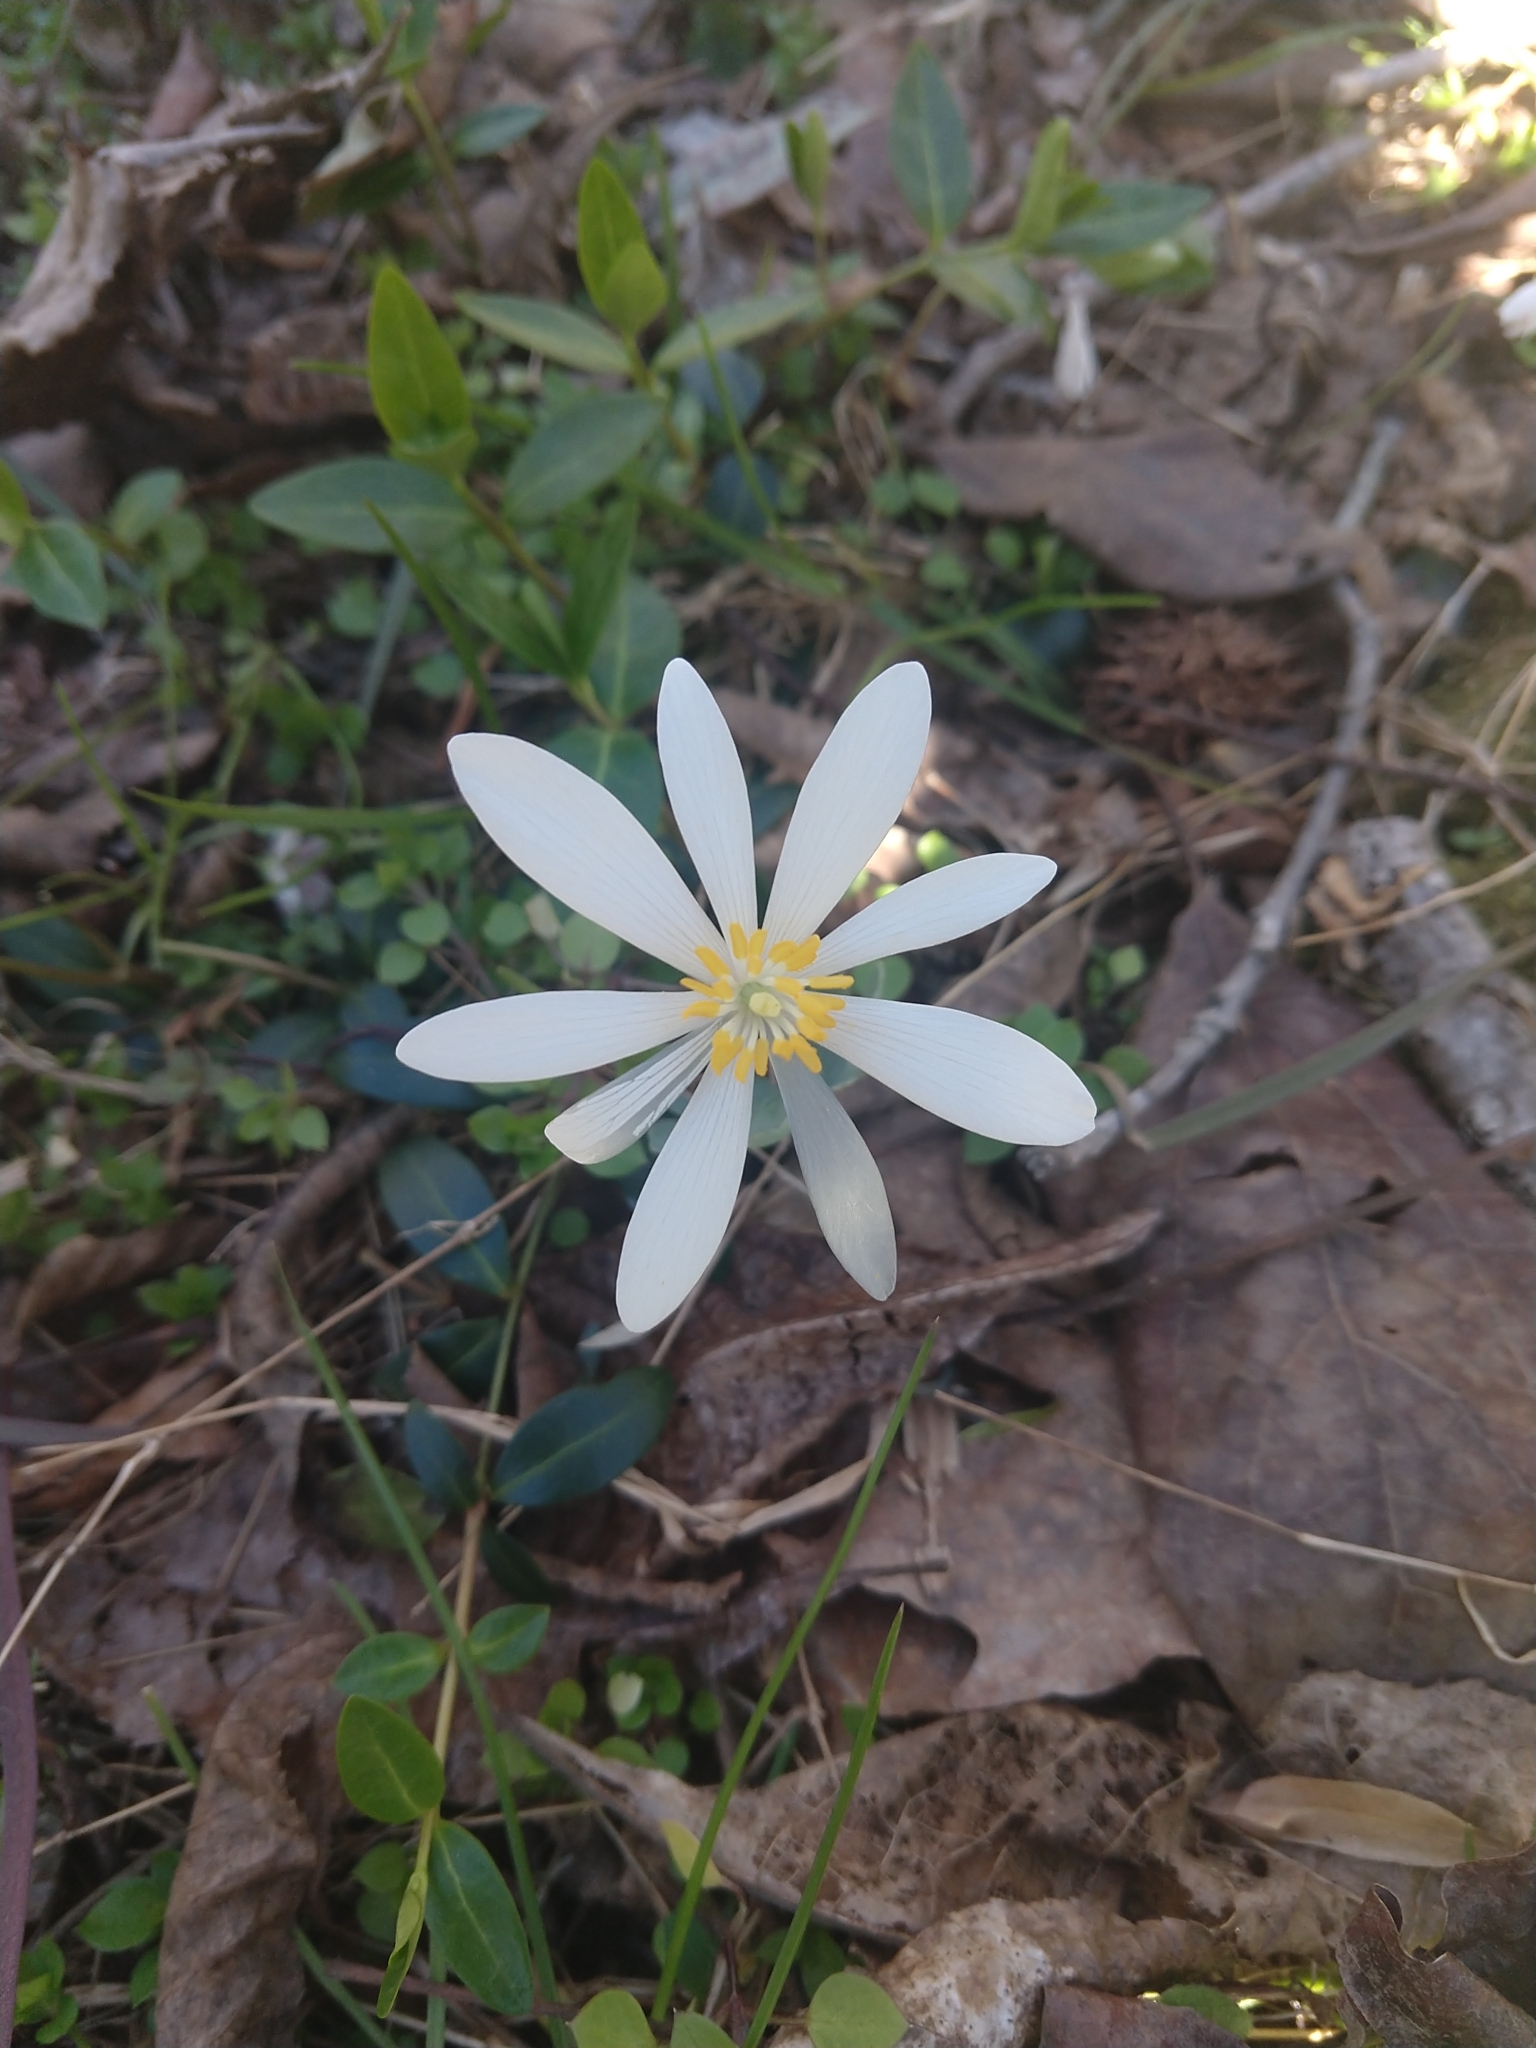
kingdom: Plantae
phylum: Tracheophyta
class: Magnoliopsida
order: Ranunculales
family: Papaveraceae
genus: Sanguinaria
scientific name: Sanguinaria canadensis
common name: Bloodroot
